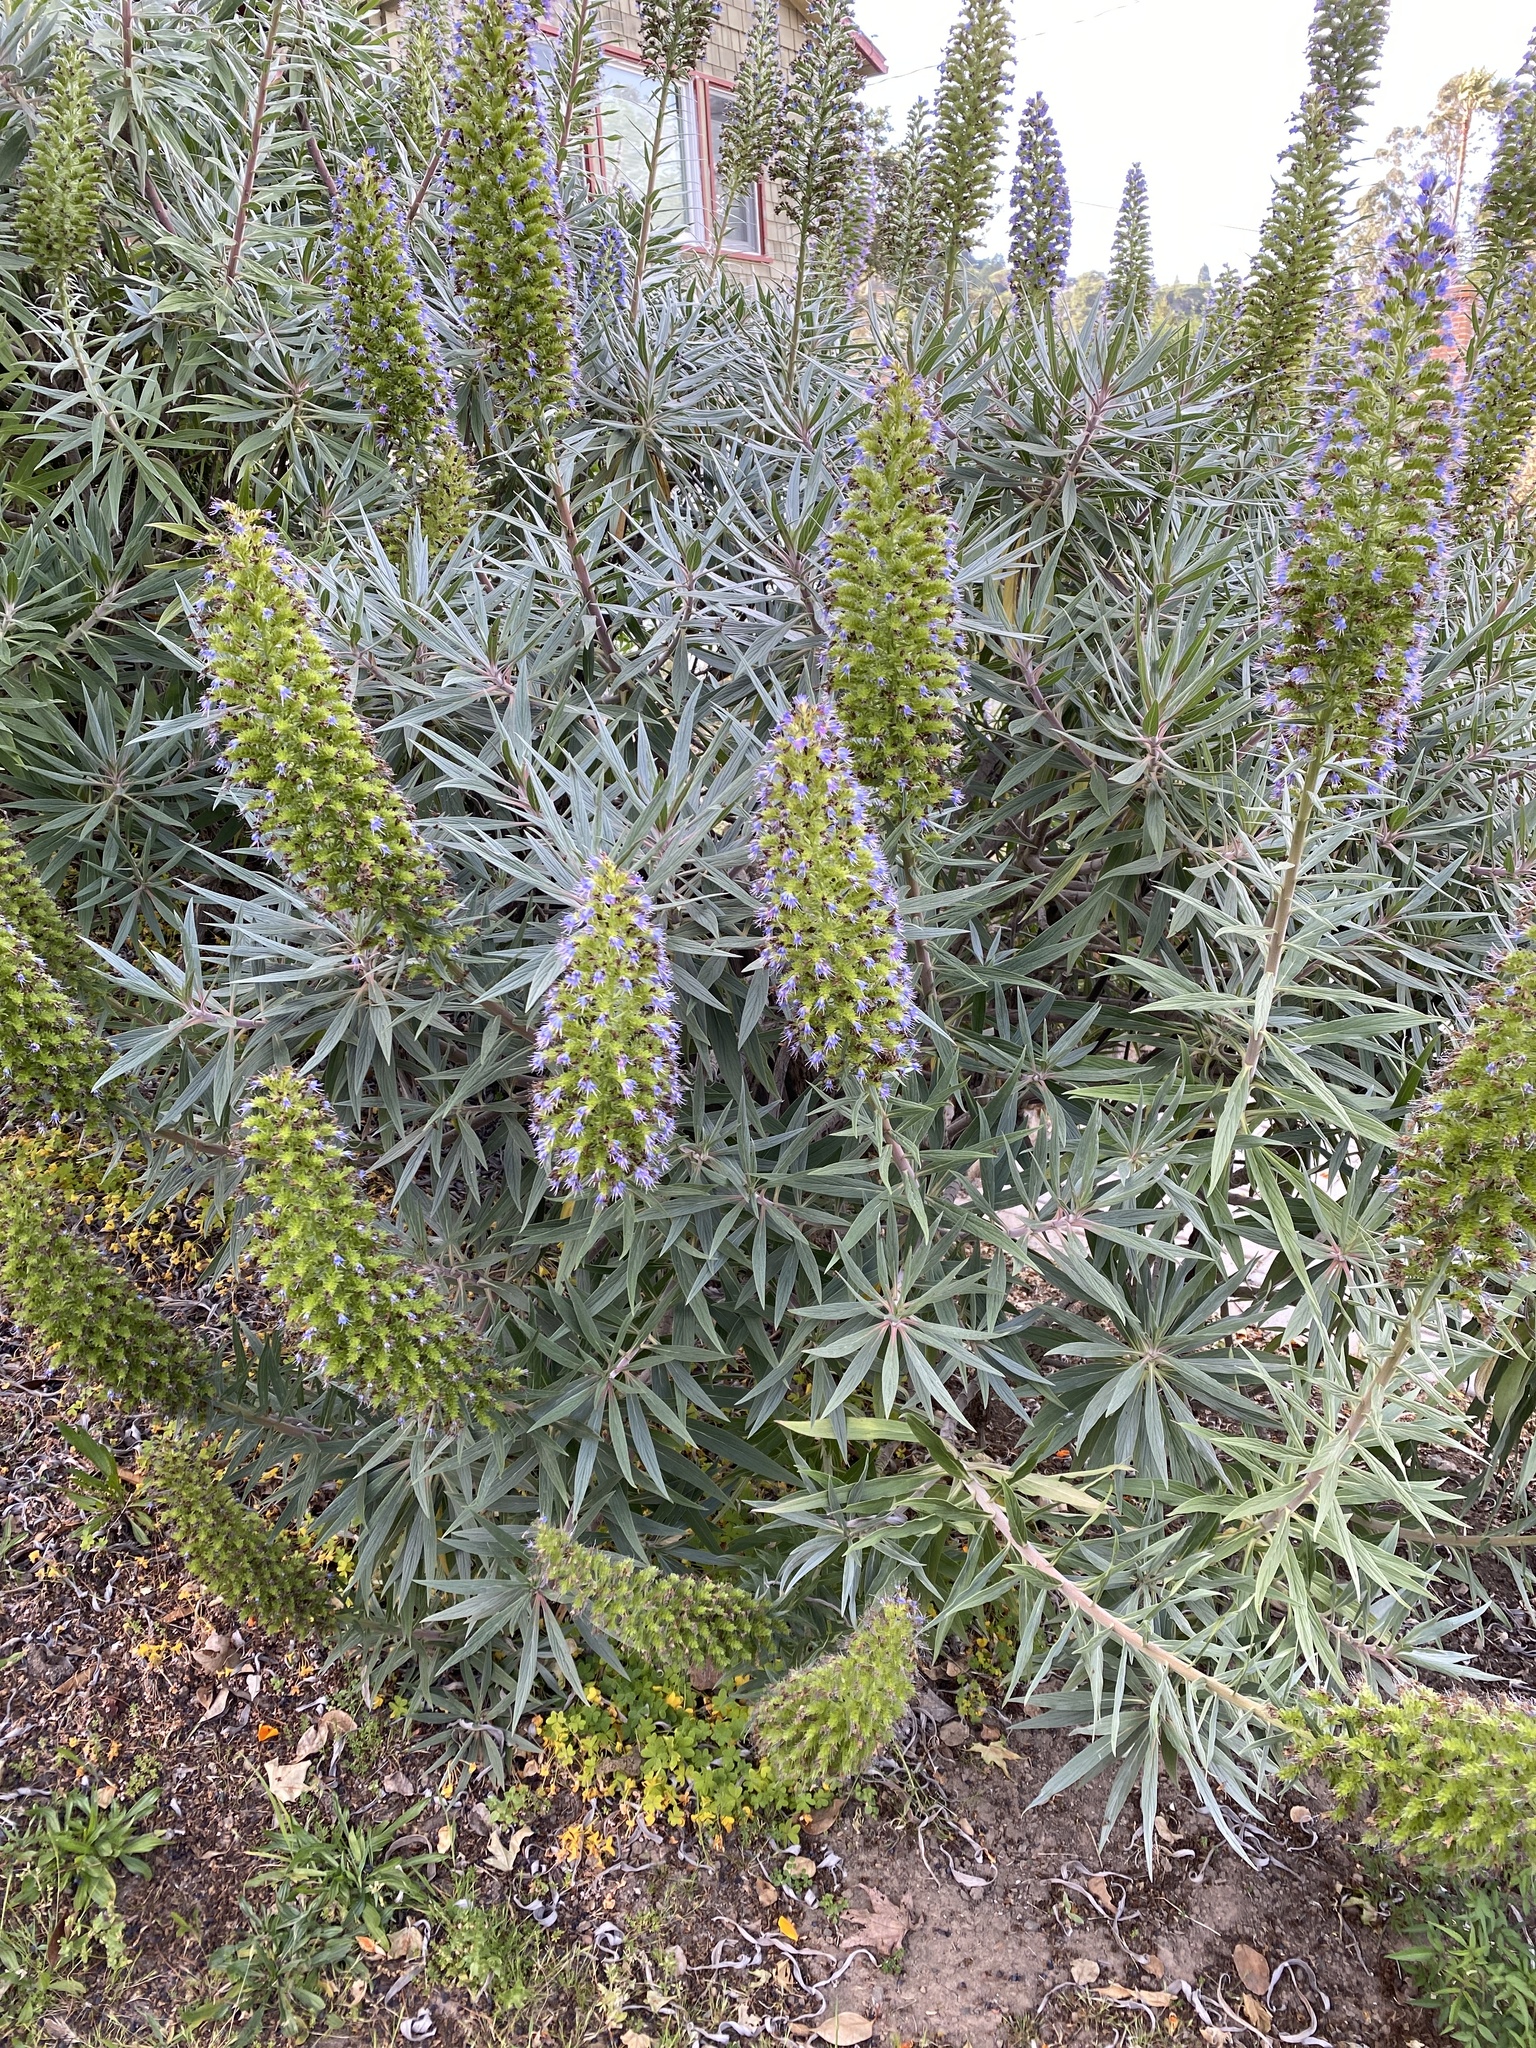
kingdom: Plantae
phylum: Tracheophyta
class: Magnoliopsida
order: Boraginales
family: Boraginaceae
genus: Echium
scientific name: Echium candicans
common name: Pride of madeira
